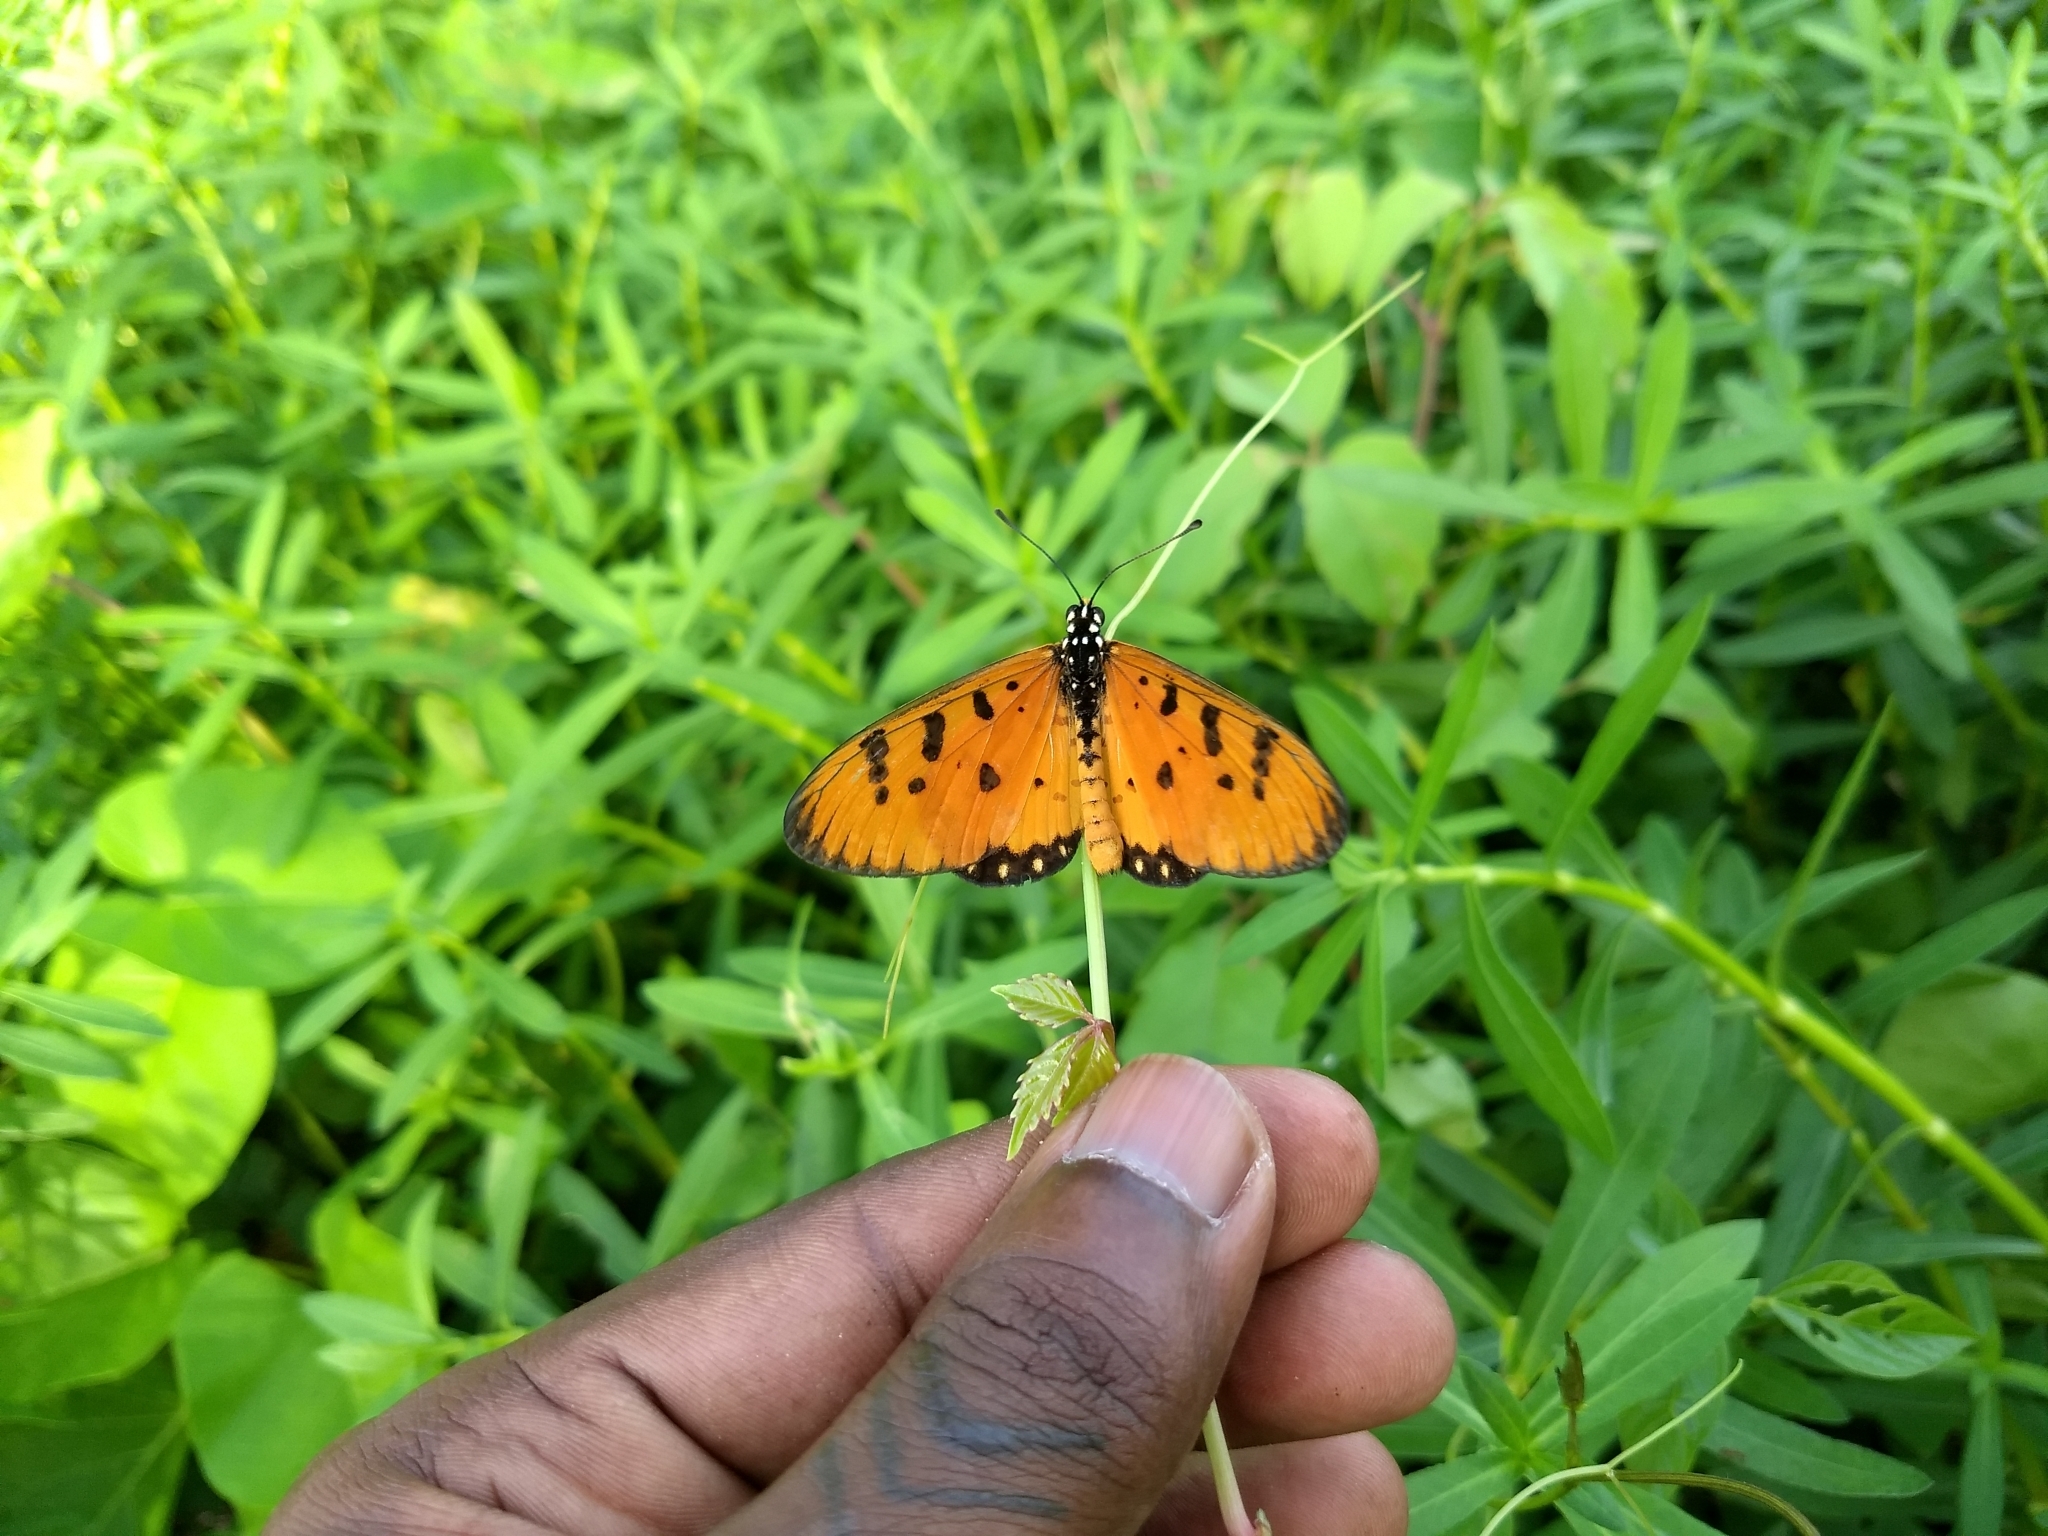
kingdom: Animalia
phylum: Arthropoda
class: Insecta
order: Lepidoptera
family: Nymphalidae
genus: Acraea
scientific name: Acraea terpsicore
